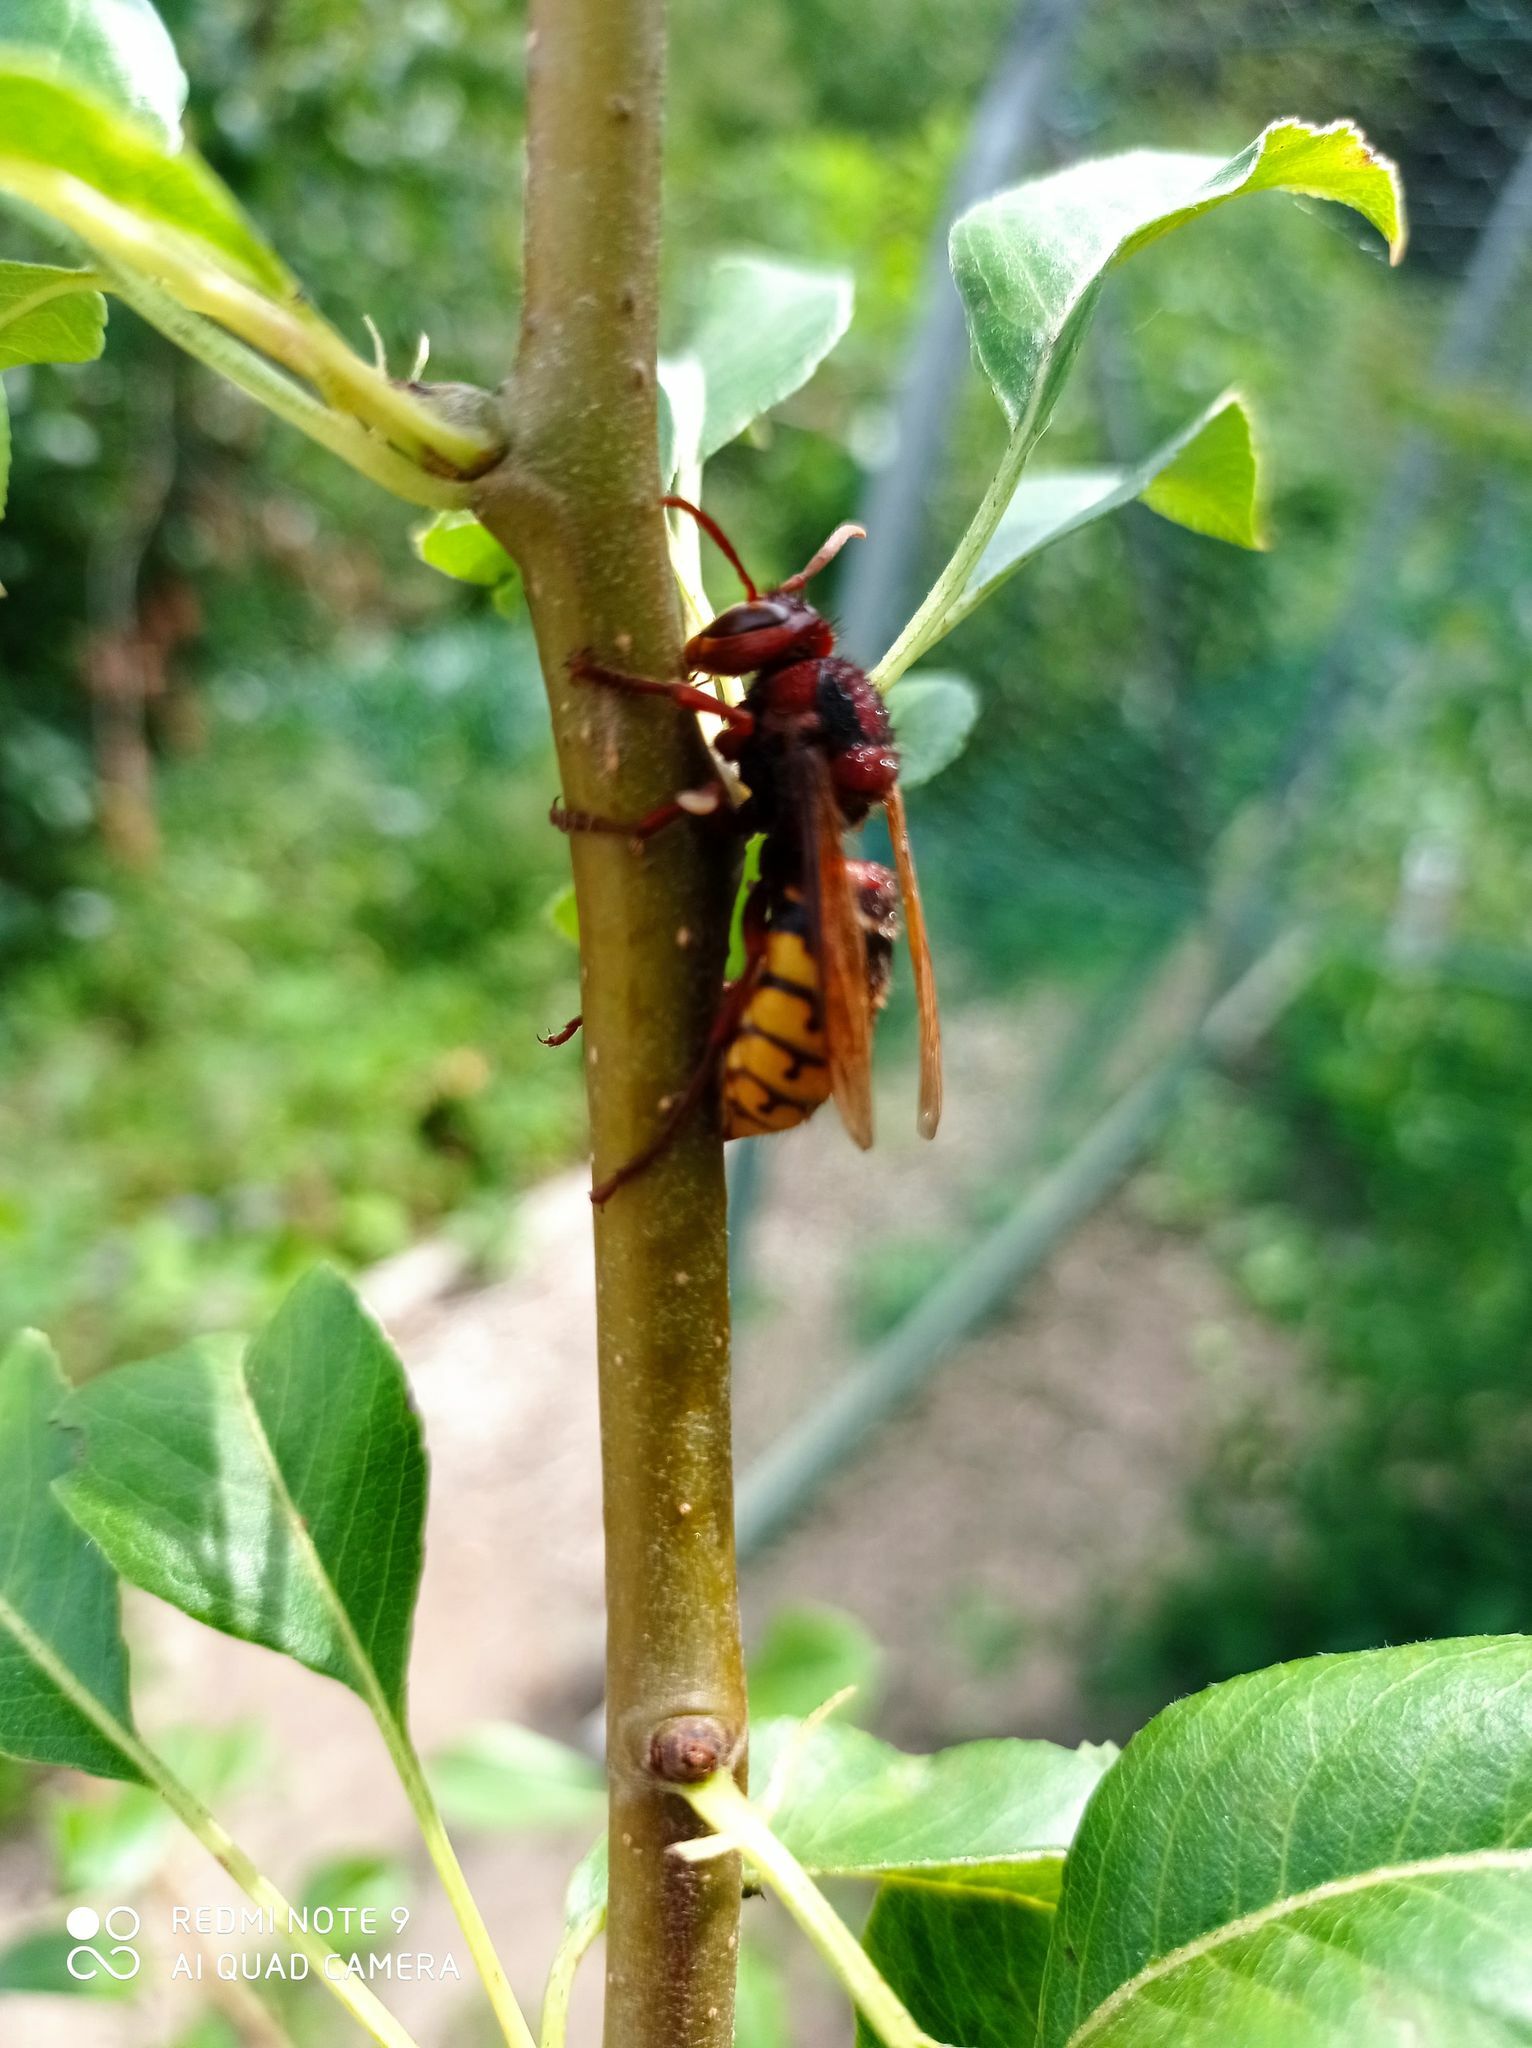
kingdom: Animalia
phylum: Arthropoda
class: Insecta
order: Hymenoptera
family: Vespidae
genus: Vespa
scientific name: Vespa crabro
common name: Hornet
